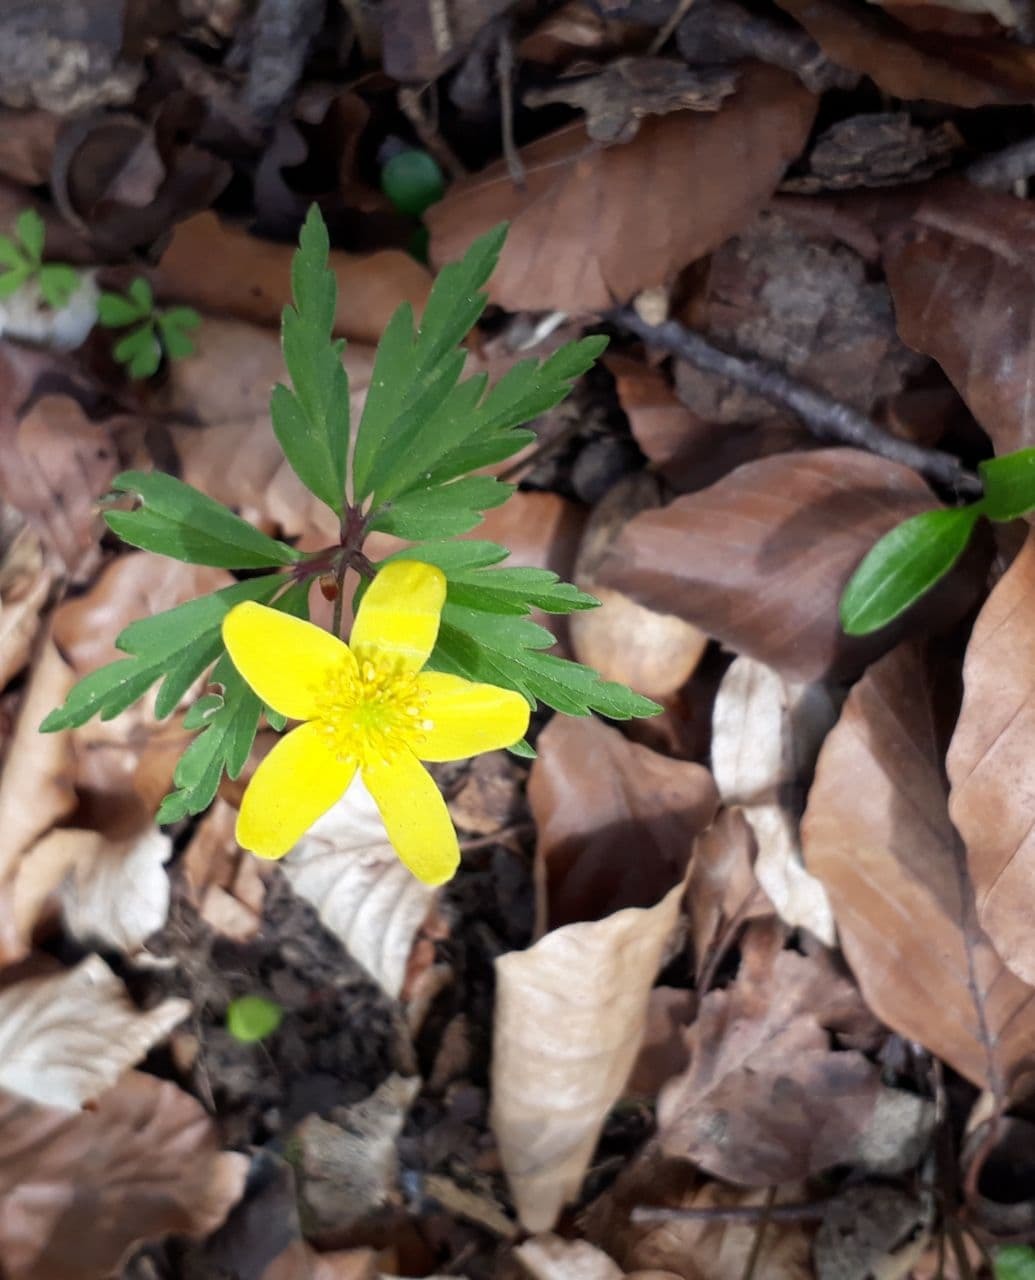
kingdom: Plantae
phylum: Tracheophyta
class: Magnoliopsida
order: Ranunculales
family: Ranunculaceae
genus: Anemone
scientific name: Anemone ranunculoides
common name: Yellow anemone
